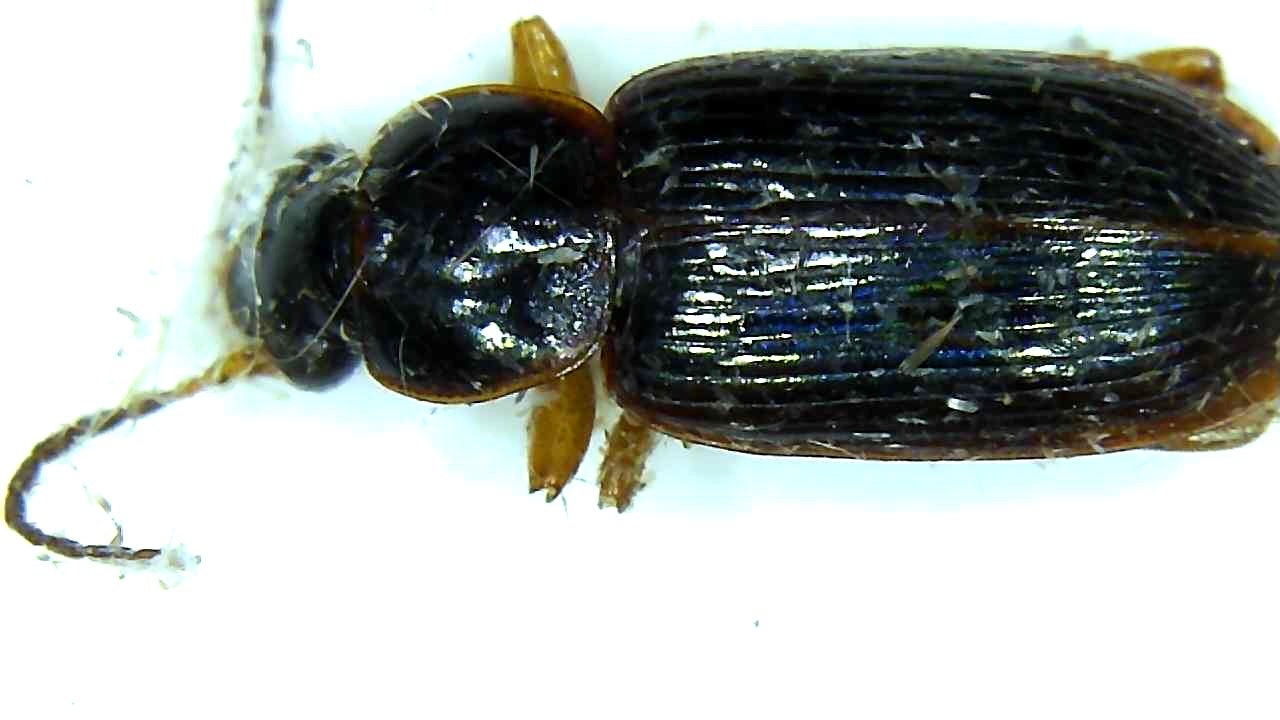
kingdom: Animalia
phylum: Arthropoda
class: Insecta
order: Coleoptera
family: Carabidae
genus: Stenolophus
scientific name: Stenolophus ochropezus
